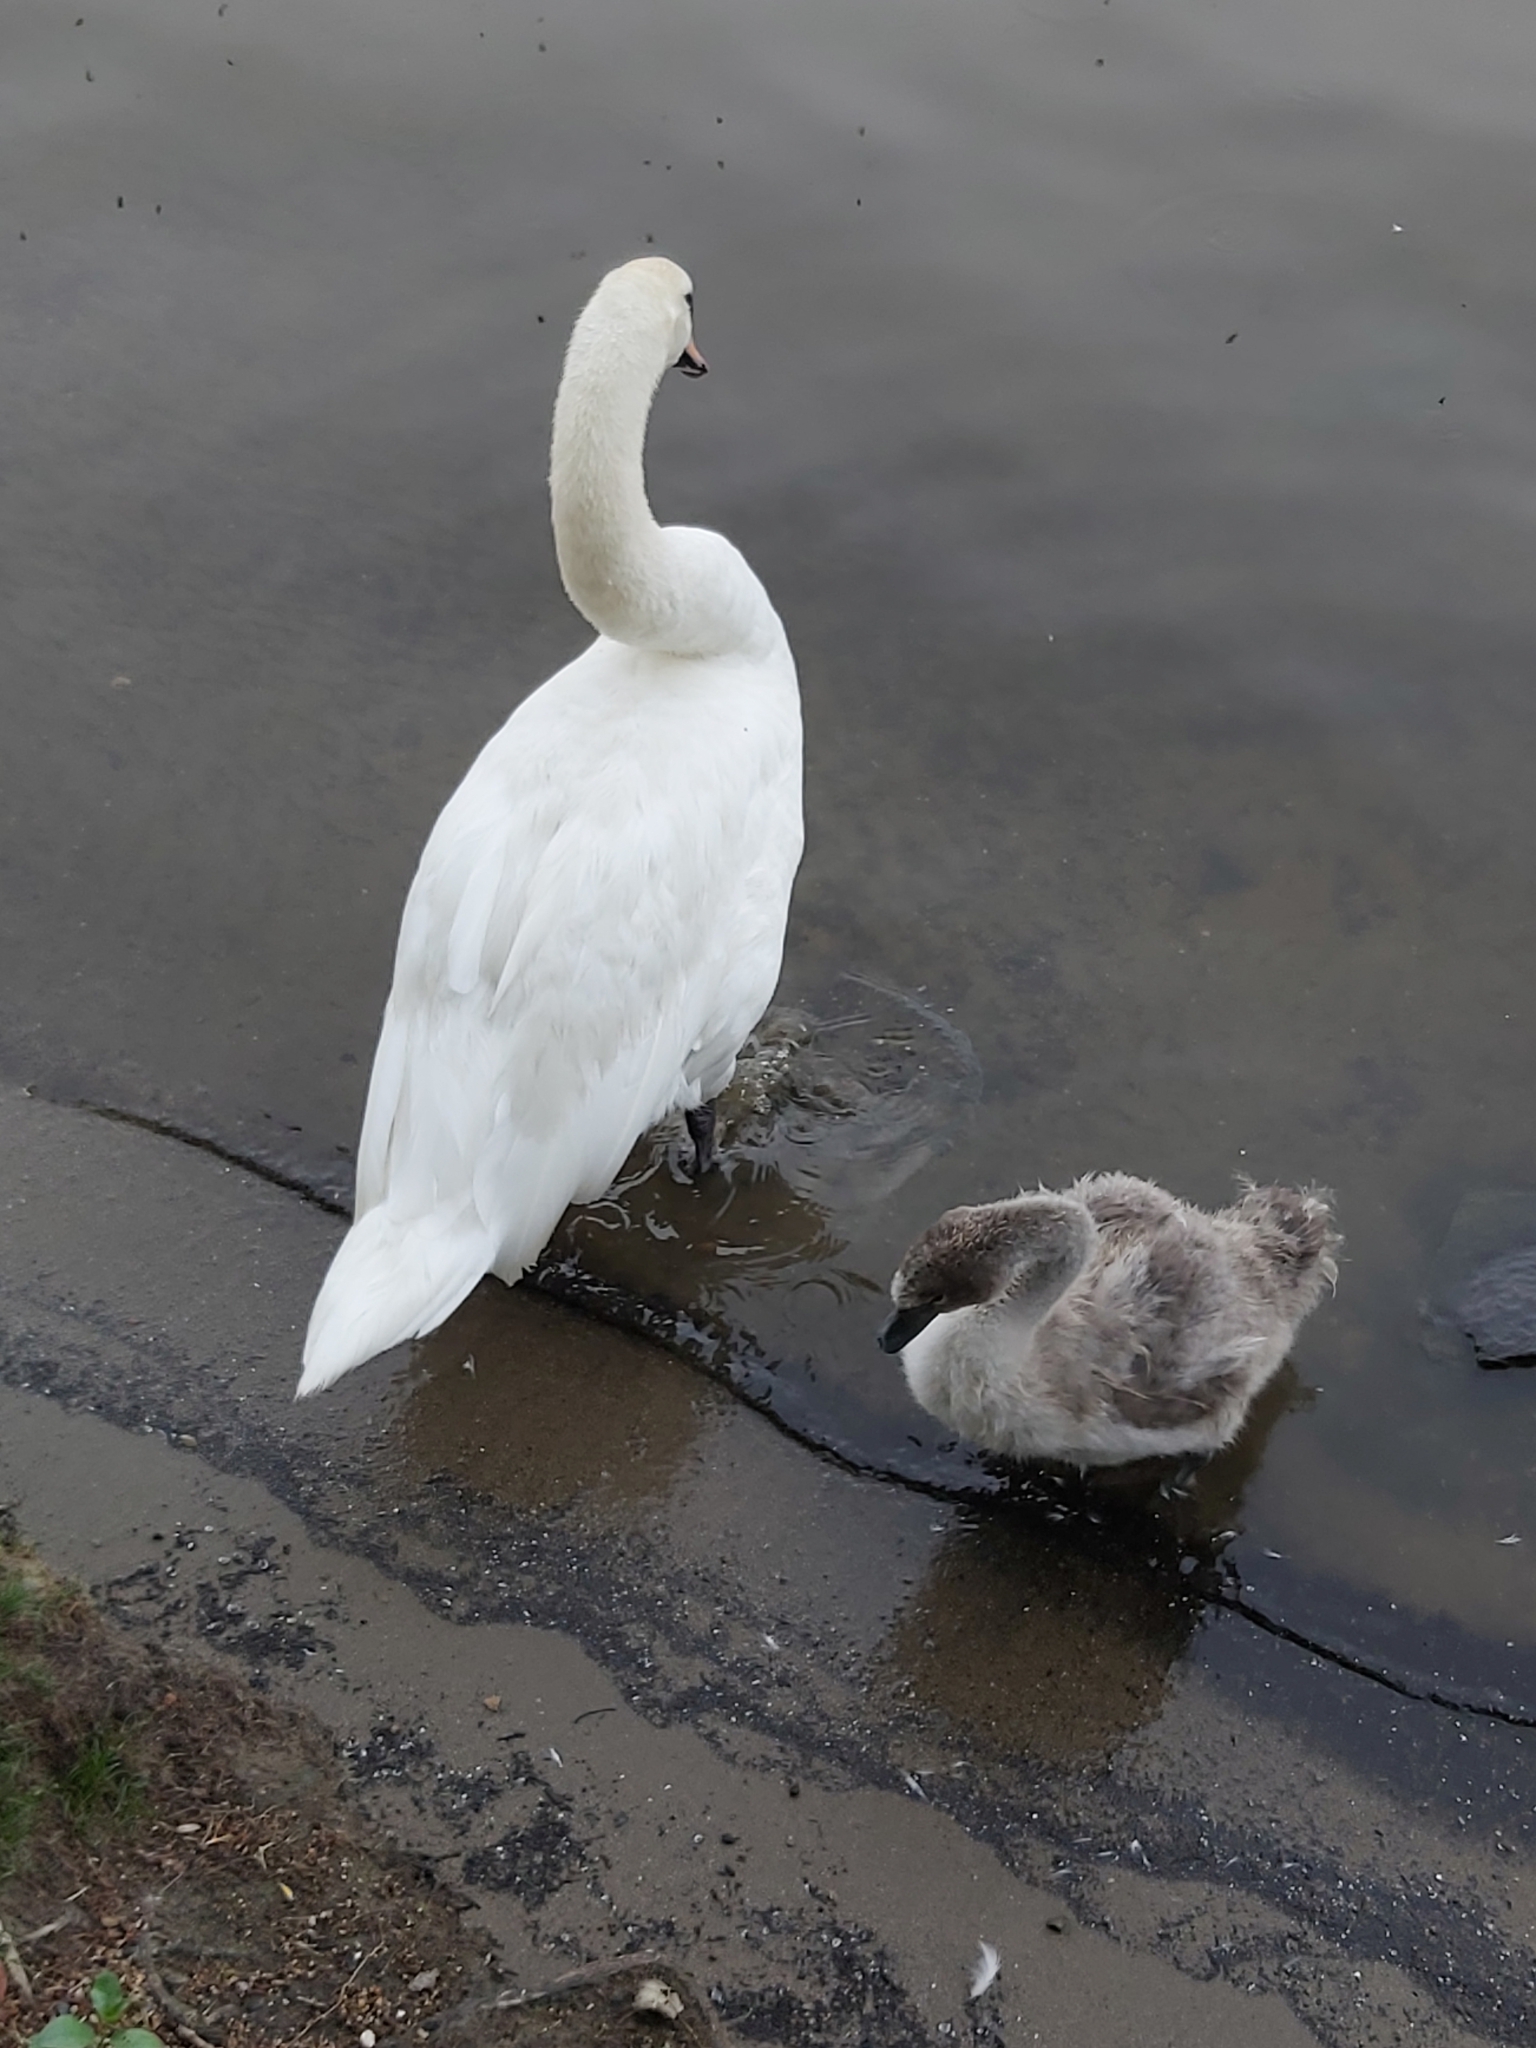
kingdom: Animalia
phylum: Chordata
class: Aves
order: Anseriformes
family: Anatidae
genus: Cygnus
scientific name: Cygnus olor
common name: Mute swan
